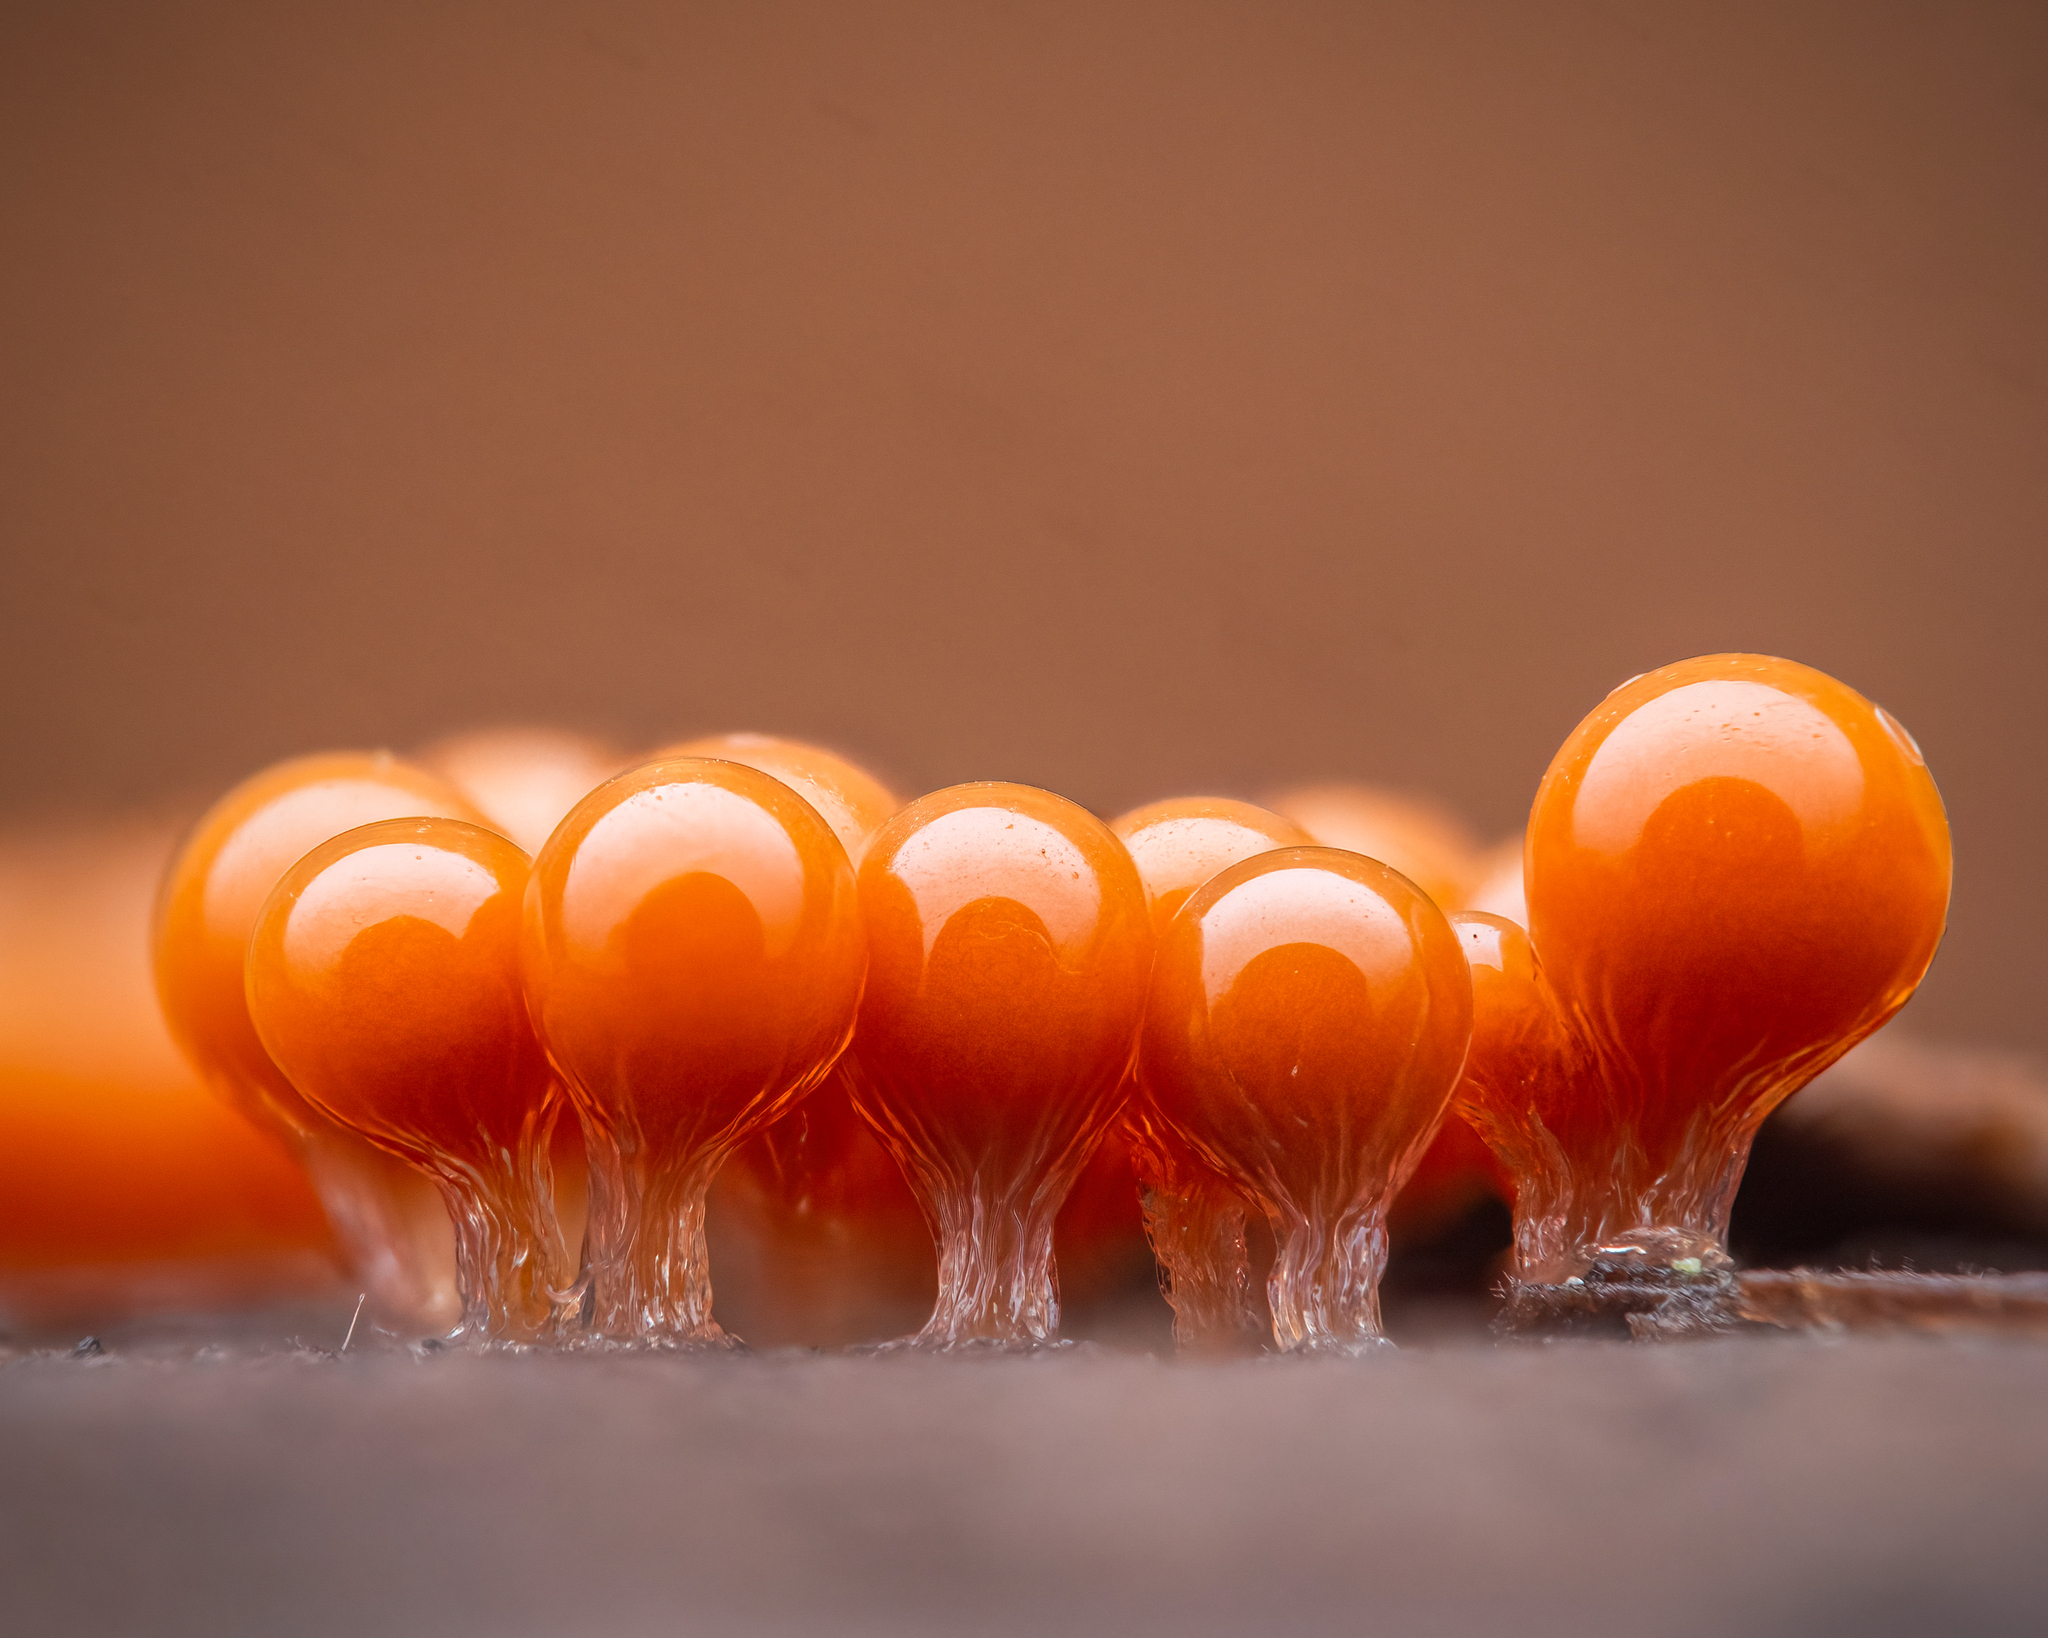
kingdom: Protozoa
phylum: Mycetozoa
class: Myxomycetes
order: Trichiales
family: Arcyriaceae
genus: Hemitrichia
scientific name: Hemitrichia decipiens
